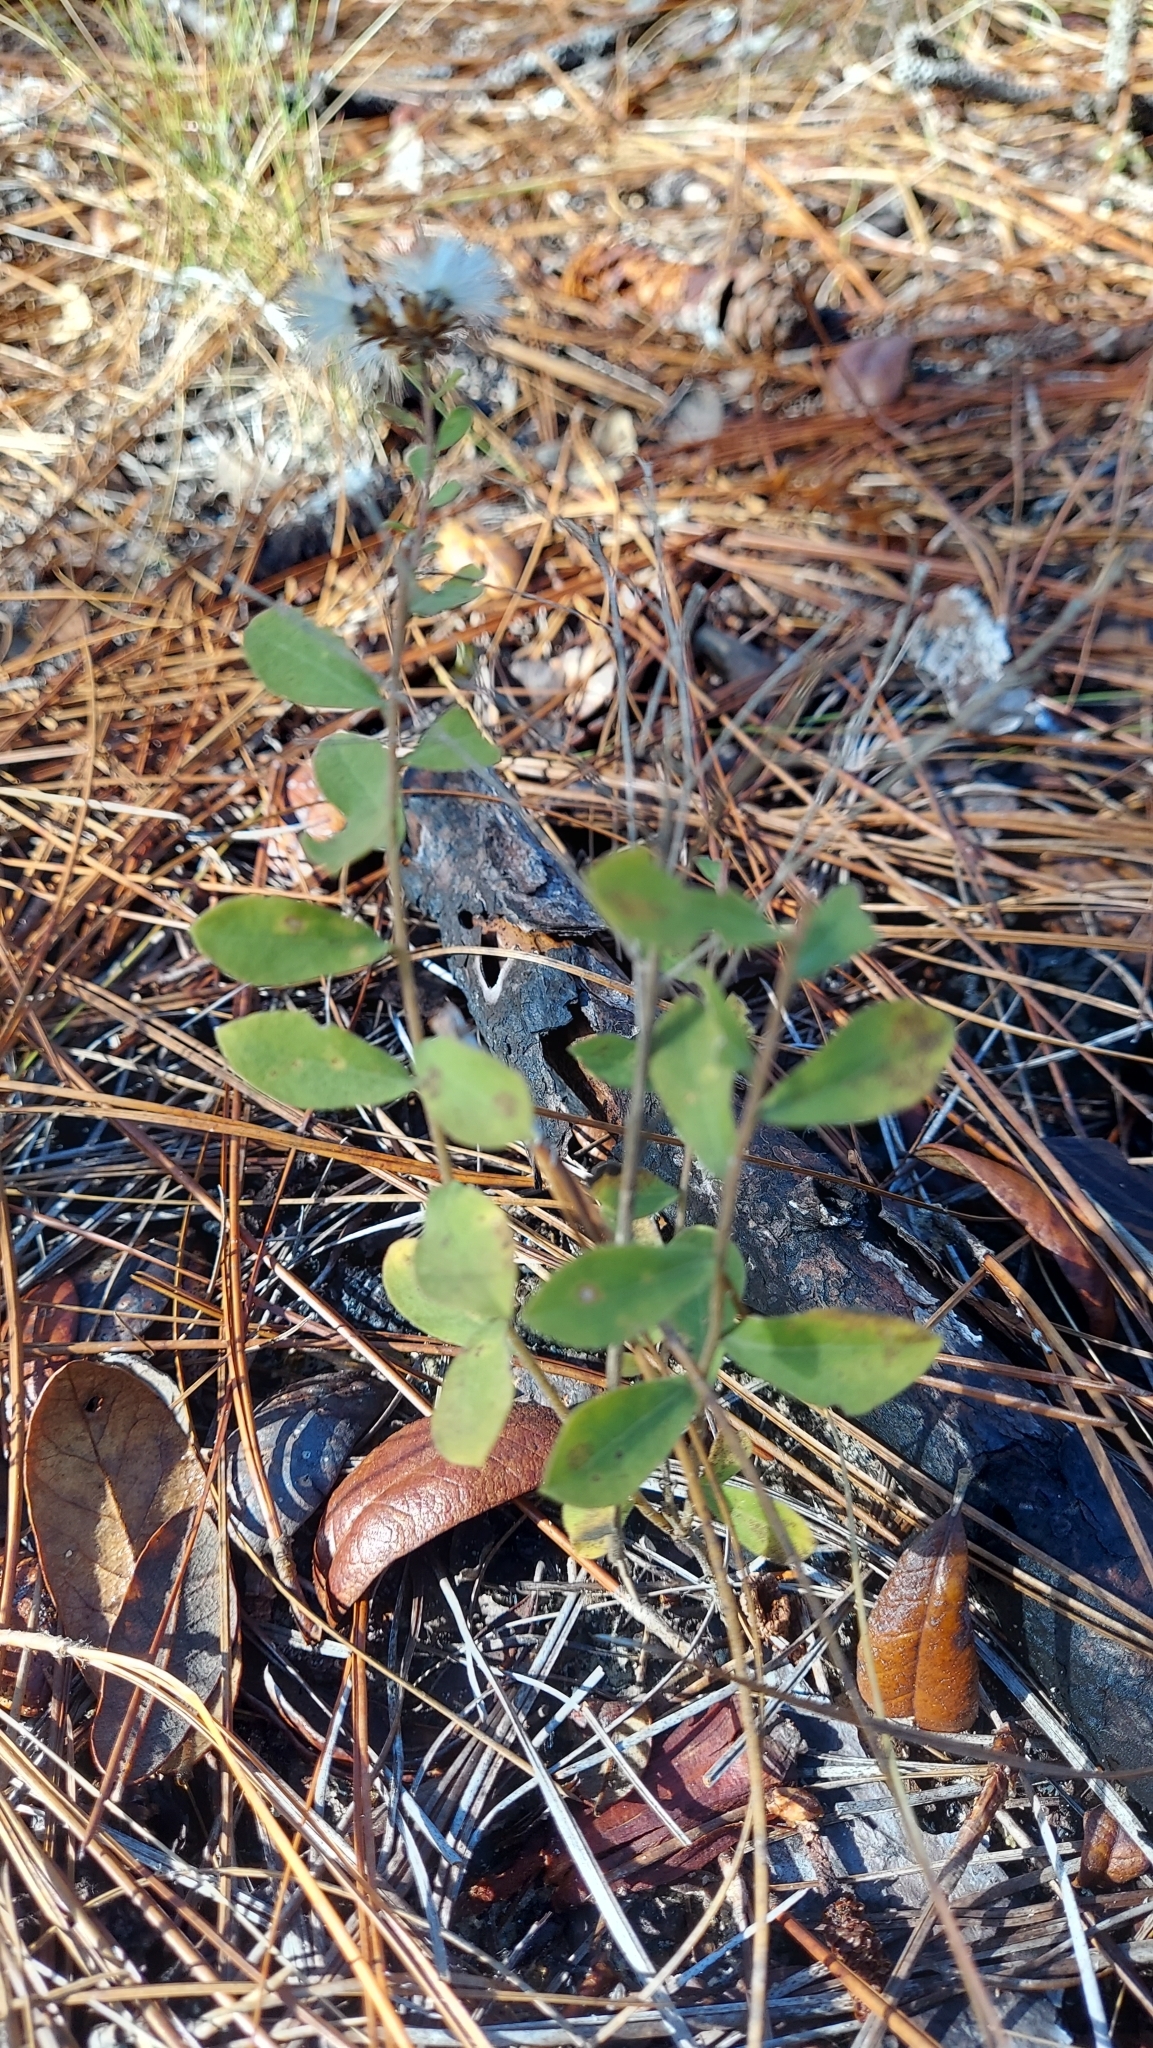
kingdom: Plantae
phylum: Tracheophyta
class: Magnoliopsida
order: Asterales
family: Asteraceae
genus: Sericocarpus
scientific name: Sericocarpus tortifolius
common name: Dixie aster
